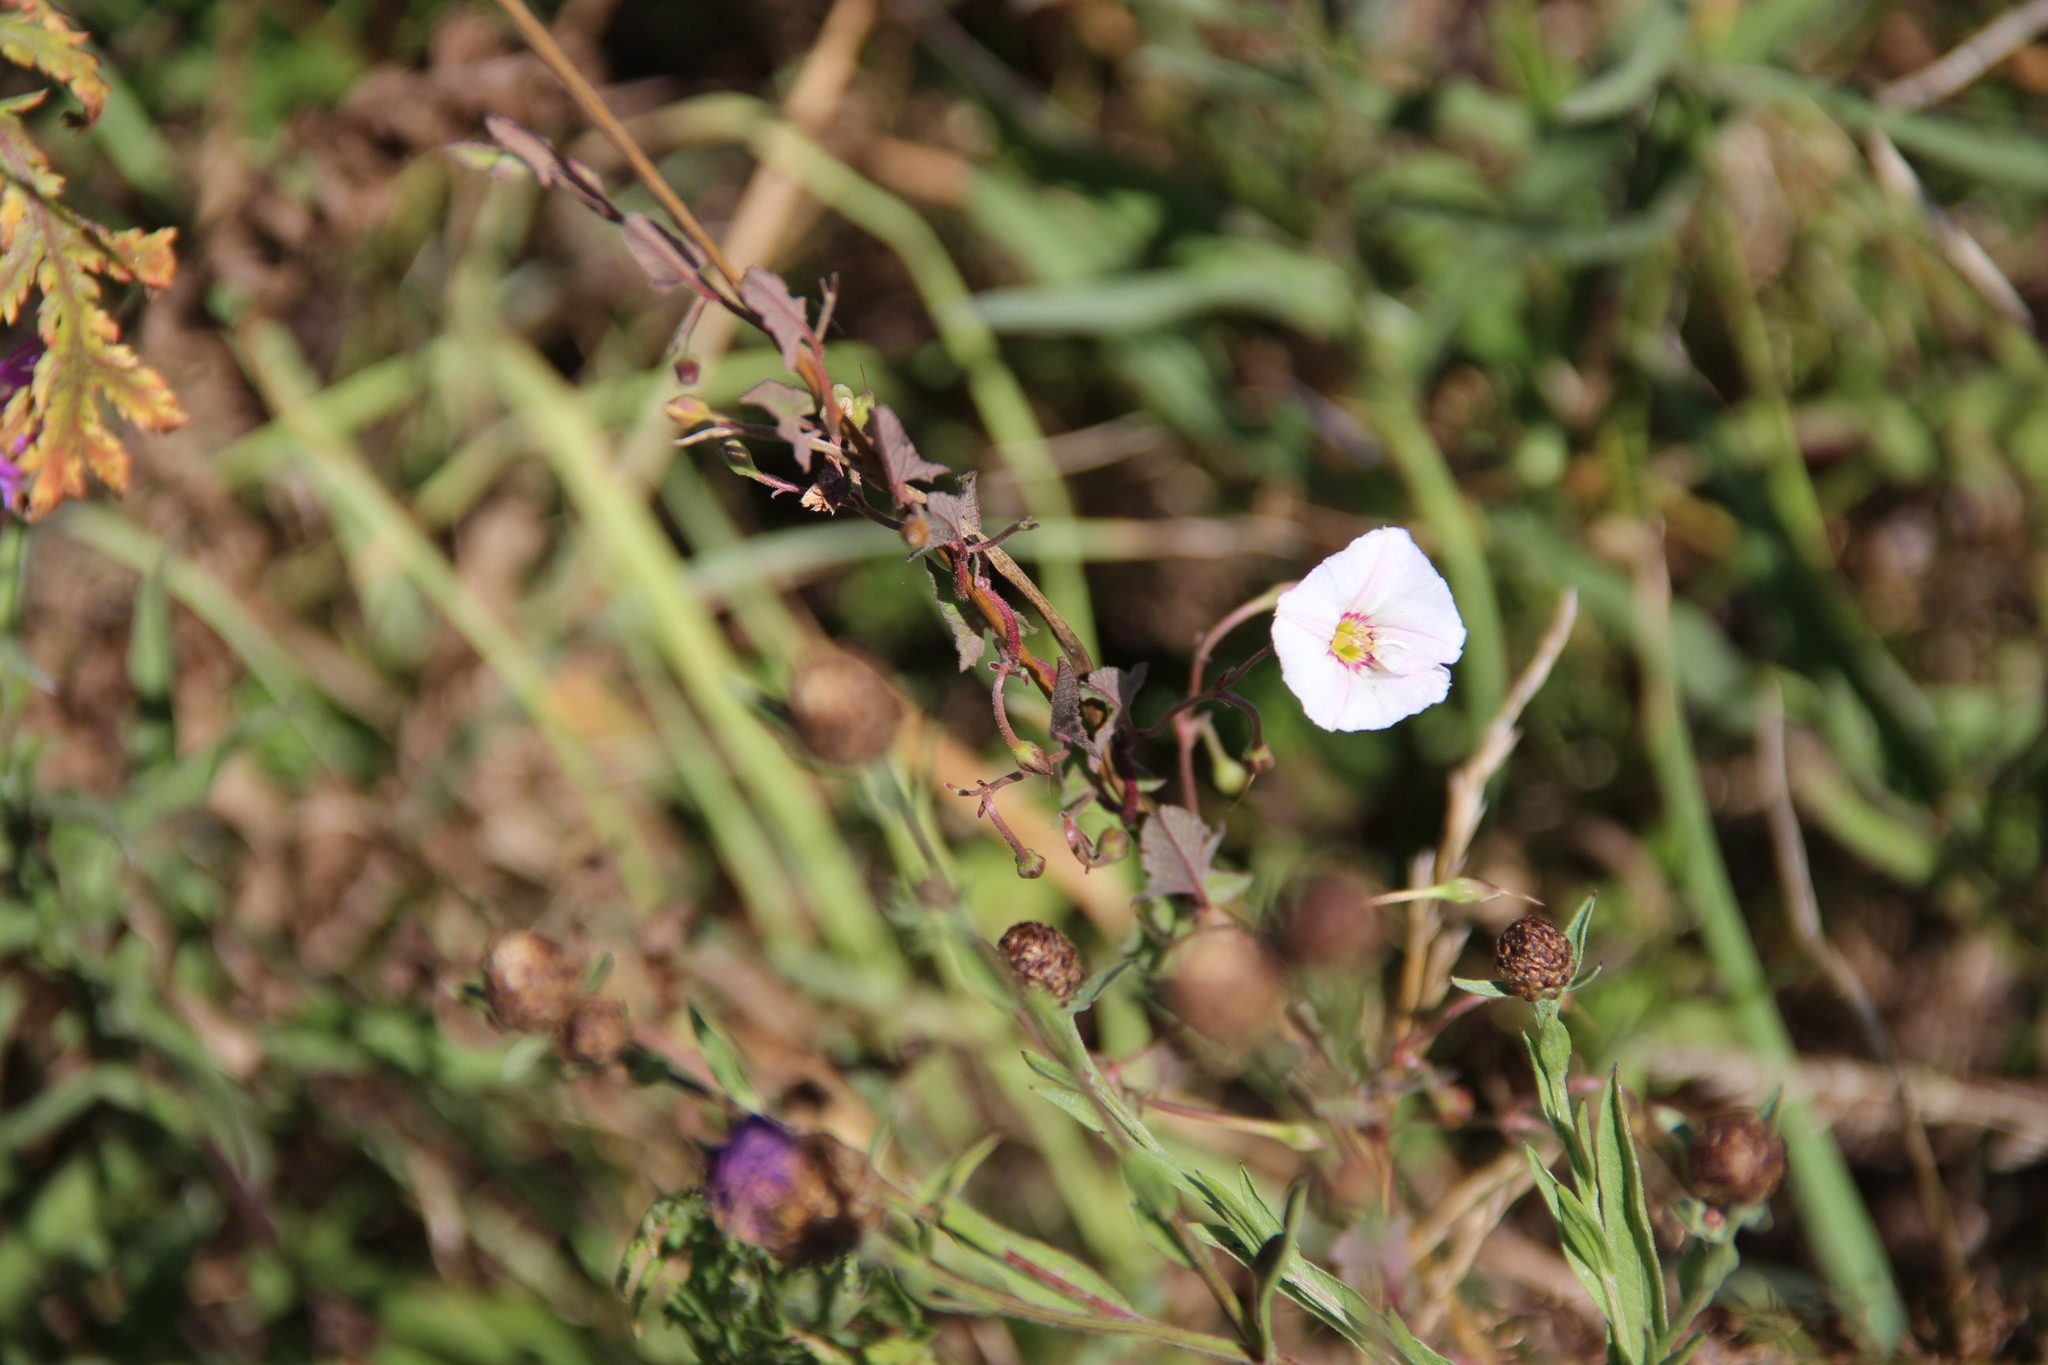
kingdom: Plantae
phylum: Tracheophyta
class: Magnoliopsida
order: Solanales
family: Convolvulaceae
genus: Convolvulus
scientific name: Convolvulus arvensis
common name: Field bindweed
